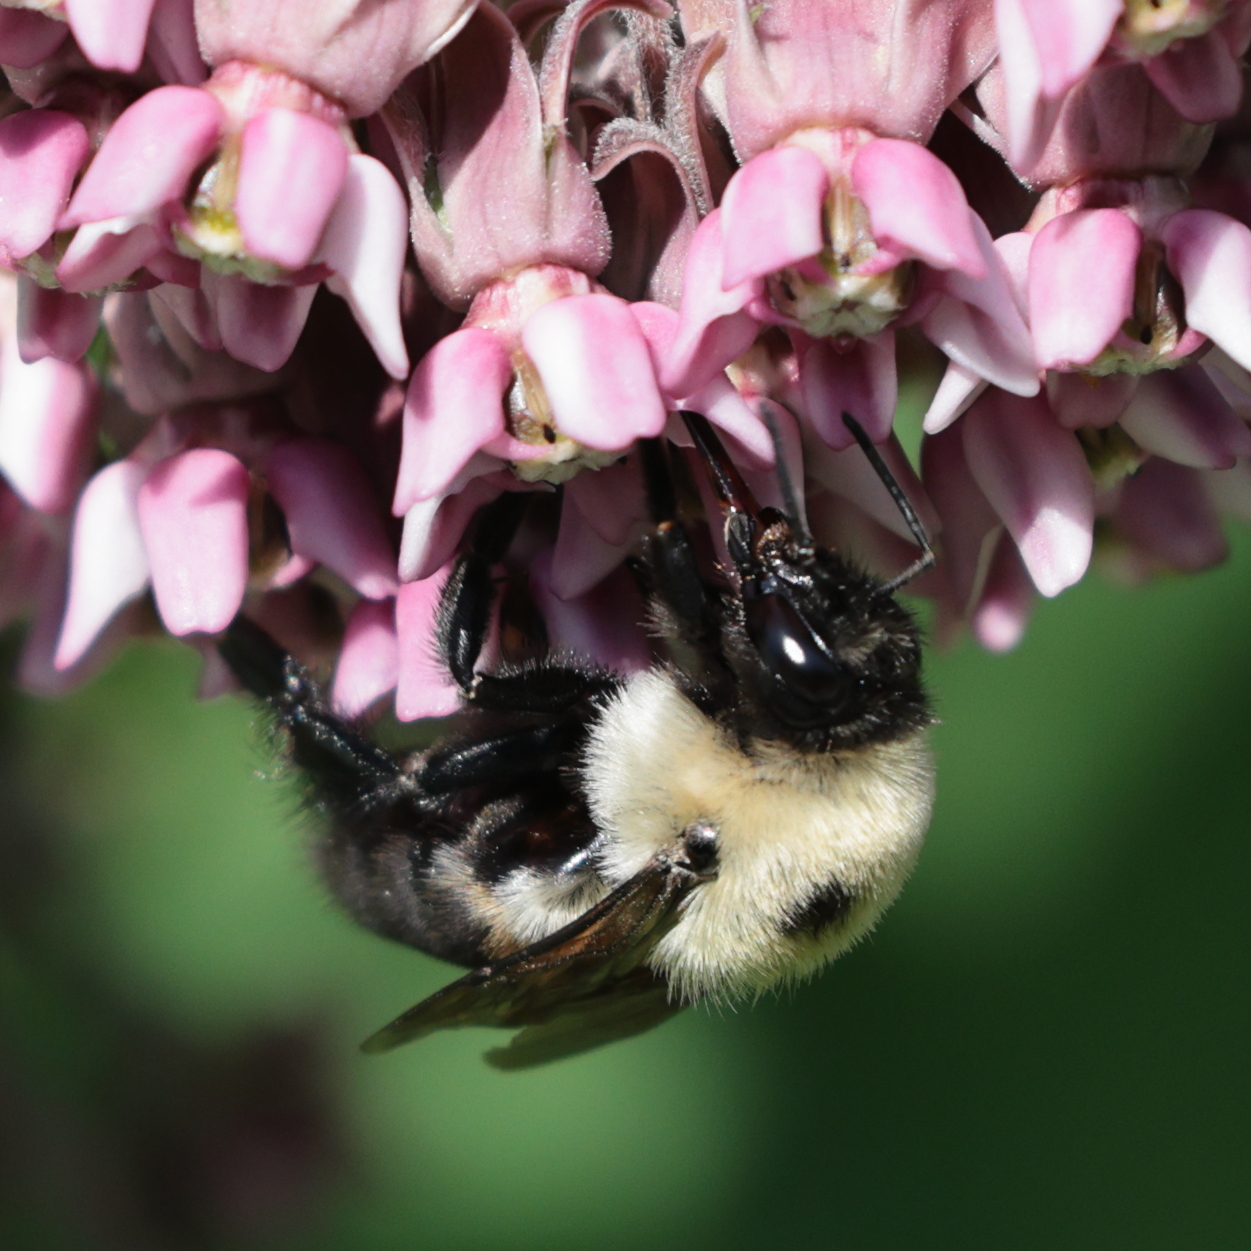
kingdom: Animalia
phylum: Arthropoda
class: Insecta
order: Hymenoptera
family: Apidae
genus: Bombus
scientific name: Bombus griseocollis
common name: Brown-belted bumble bee
